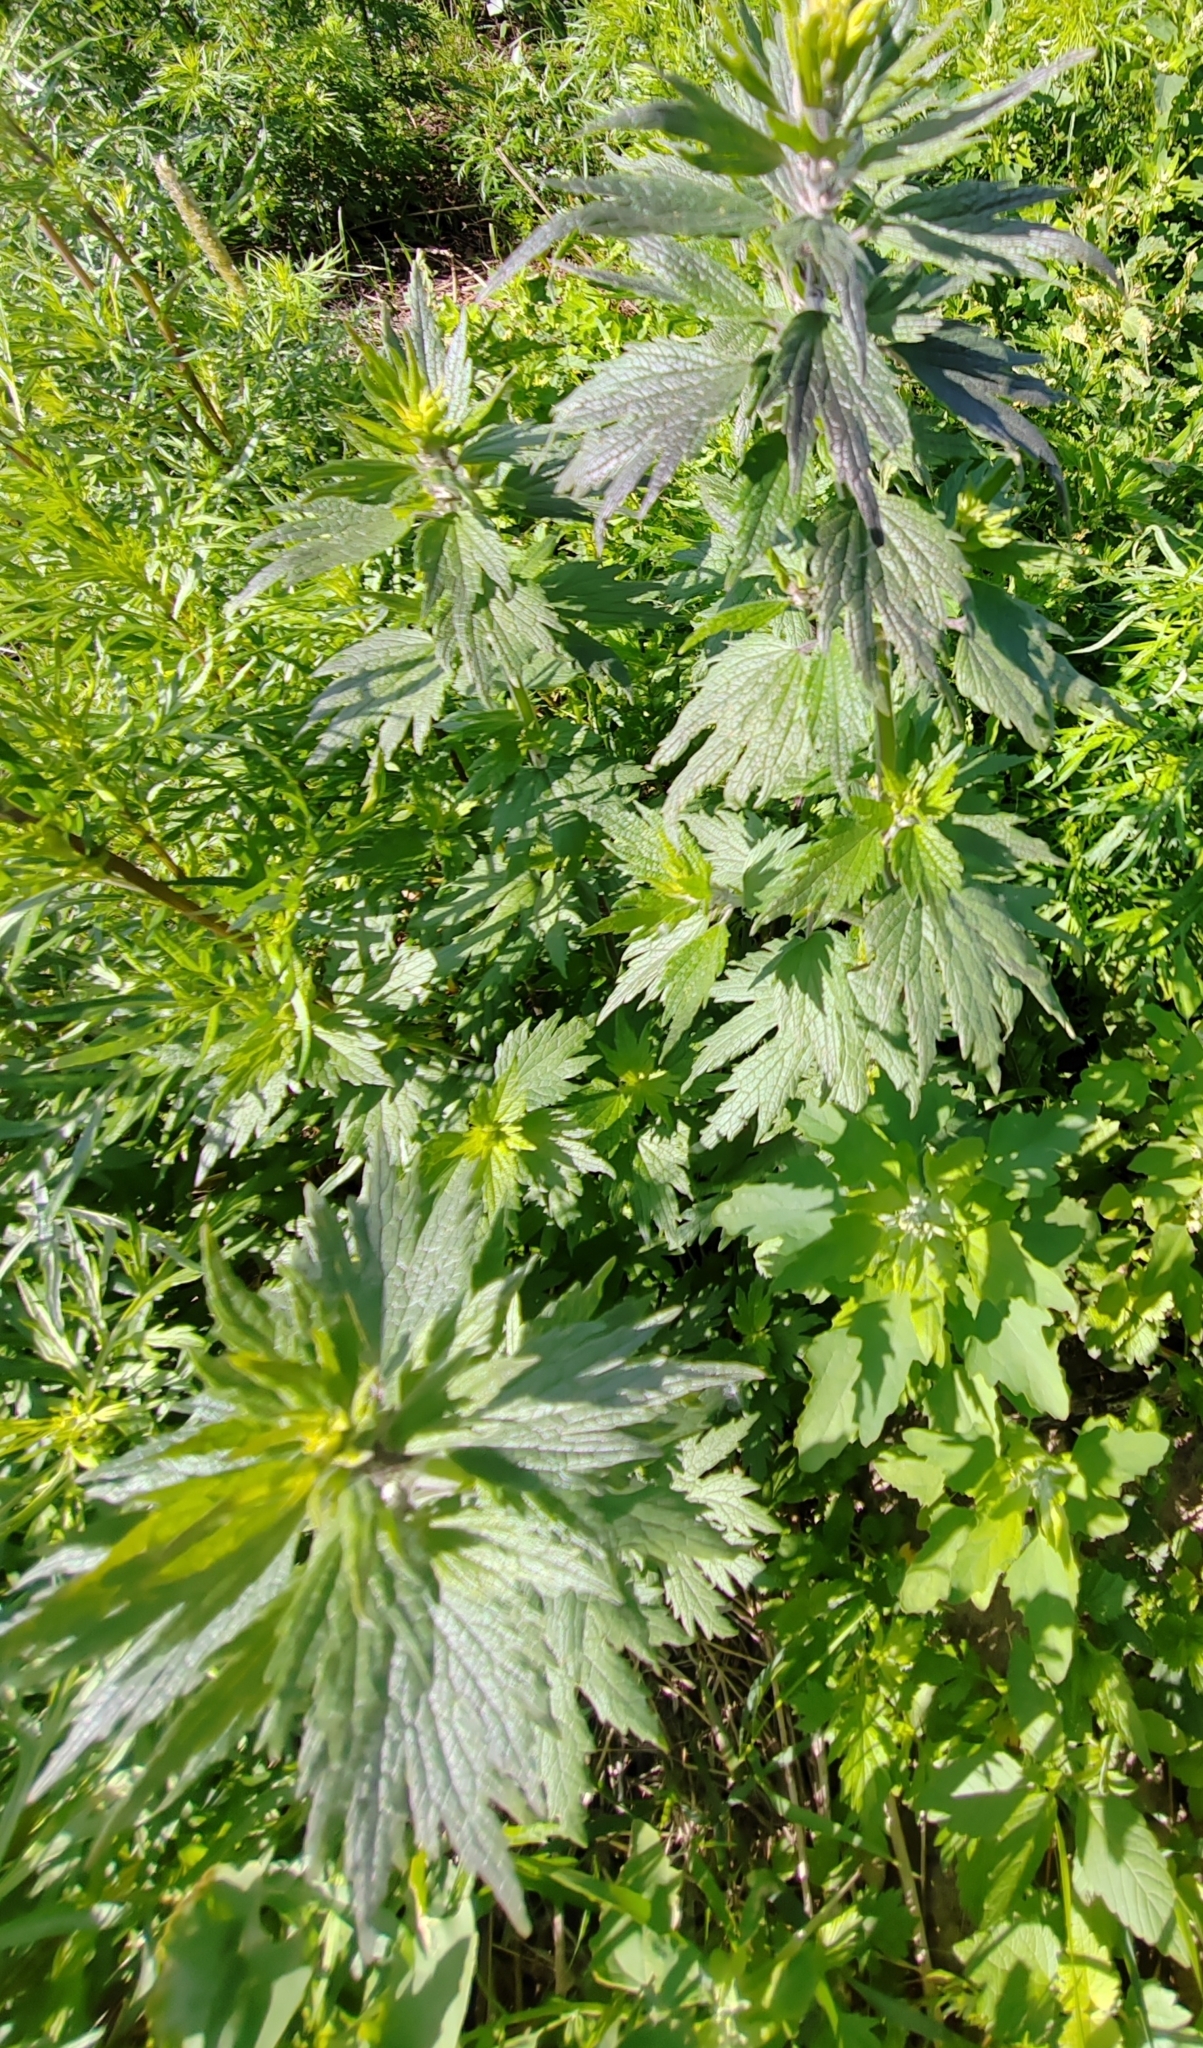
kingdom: Plantae
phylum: Tracheophyta
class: Magnoliopsida
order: Lamiales
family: Lamiaceae
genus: Leonurus
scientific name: Leonurus quinquelobatus
